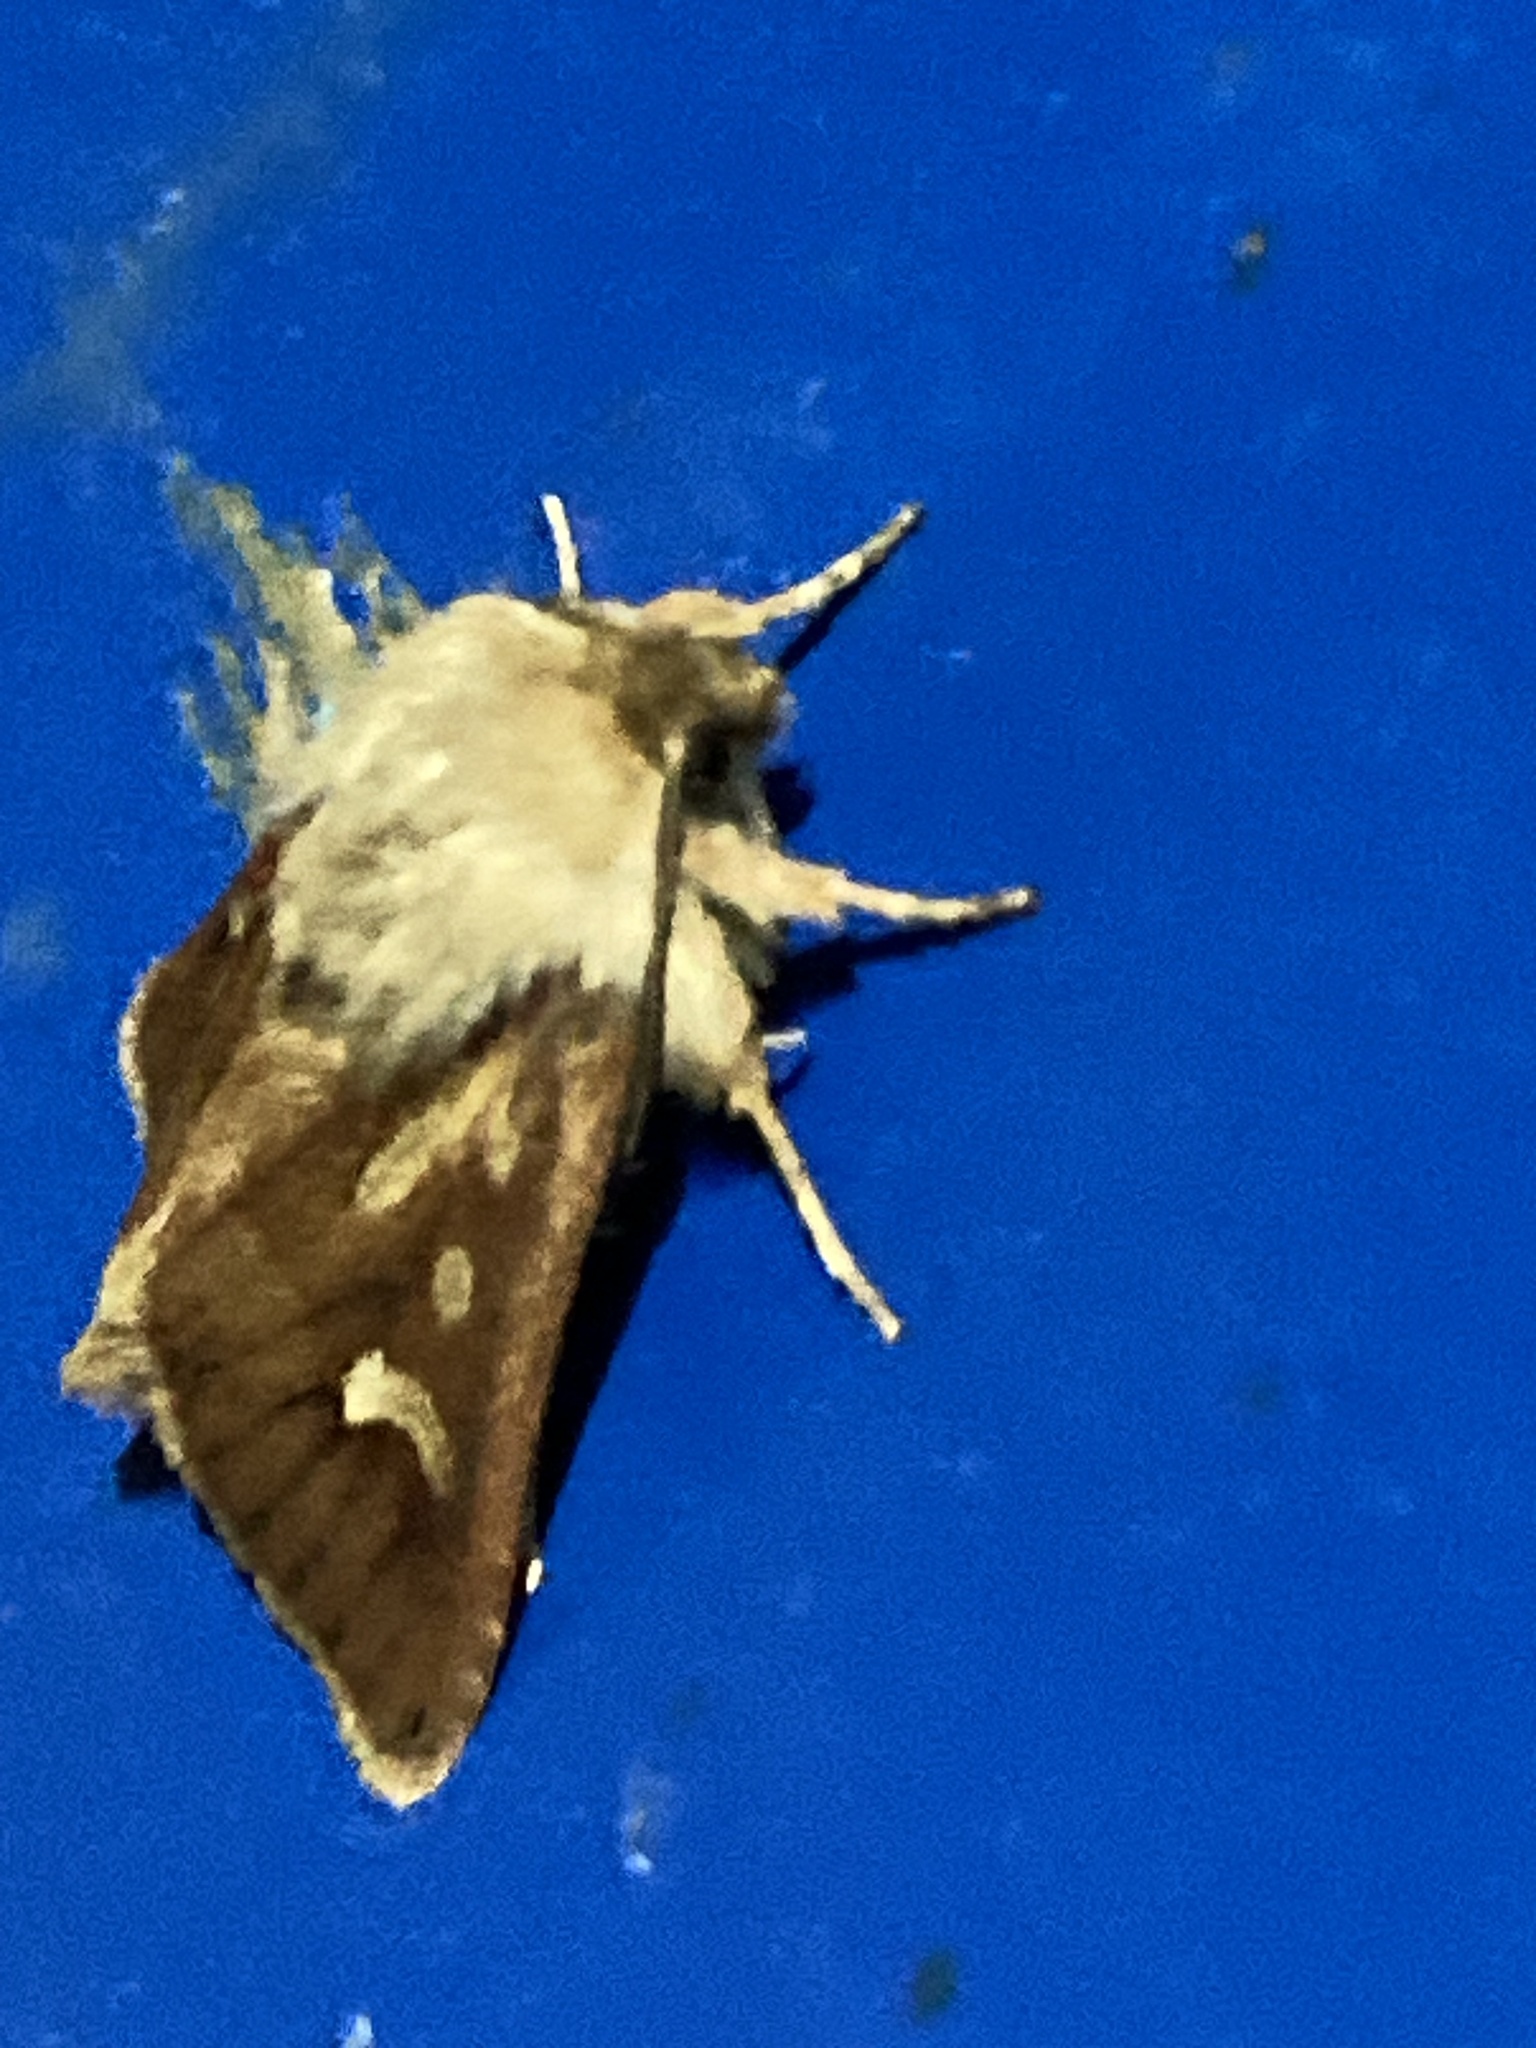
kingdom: Animalia
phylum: Arthropoda
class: Insecta
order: Lepidoptera
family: Noctuidae
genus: Cerapteryx
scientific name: Cerapteryx graminis
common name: Antler moth
